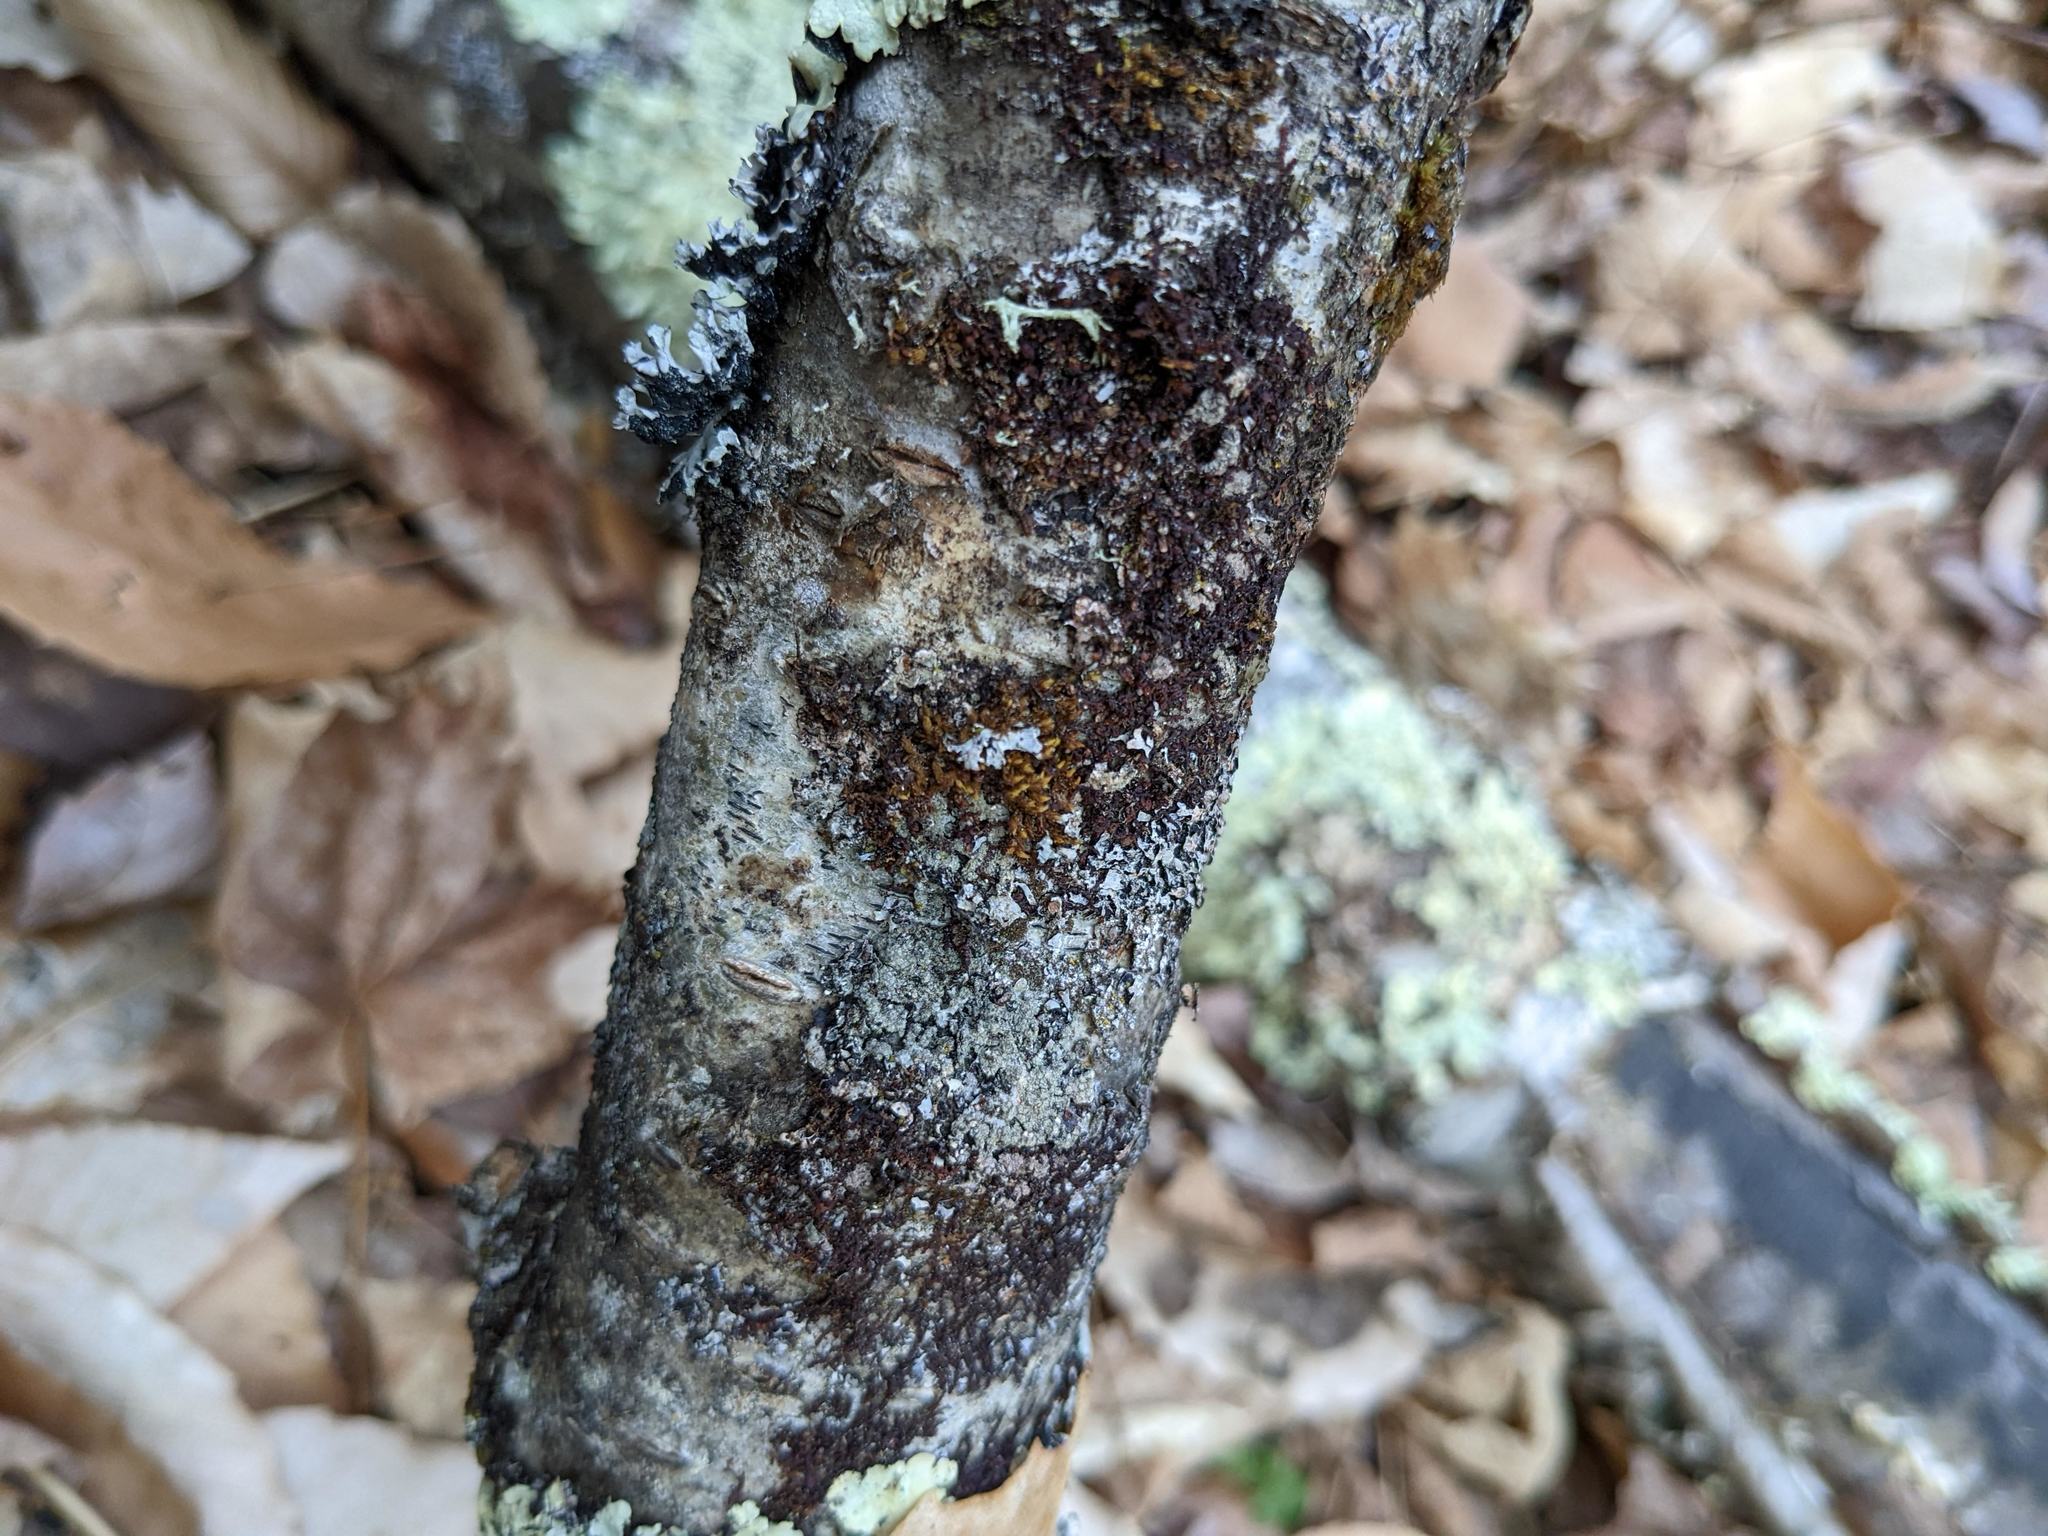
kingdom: Plantae
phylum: Bryophyta
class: Bryopsida
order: Orthotrichales
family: Orthotrichaceae
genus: Ulota
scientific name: Ulota crispa
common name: Crisped pincushion moss
